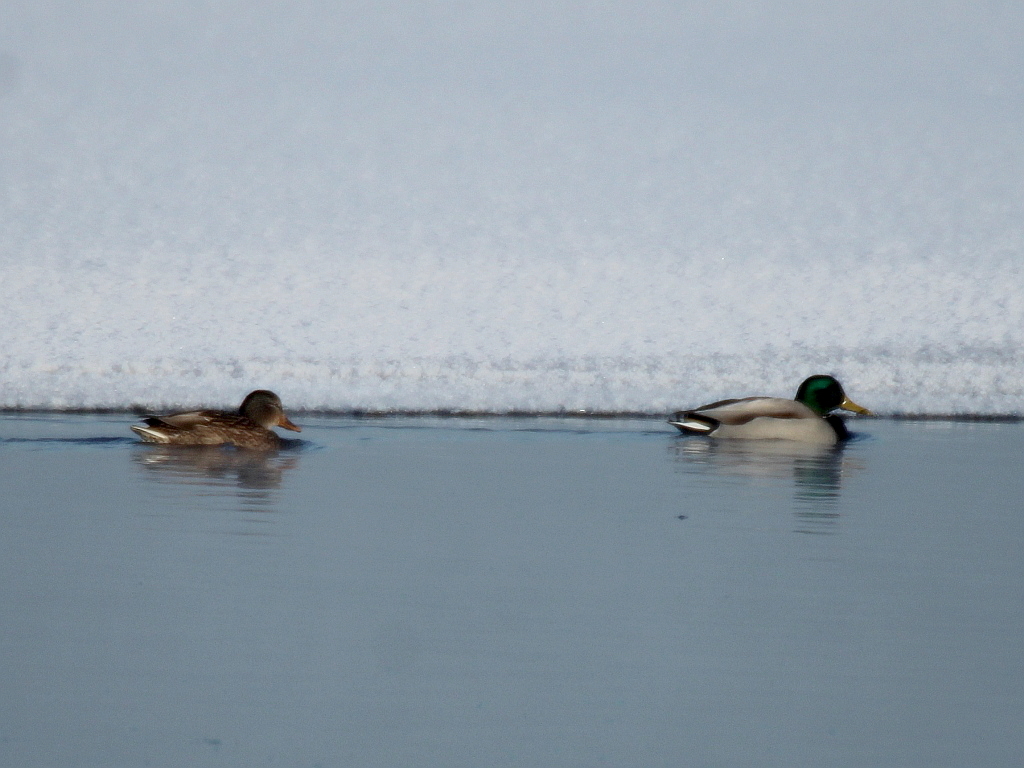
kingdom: Animalia
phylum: Chordata
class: Aves
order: Anseriformes
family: Anatidae
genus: Anas
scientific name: Anas platyrhynchos
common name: Mallard
